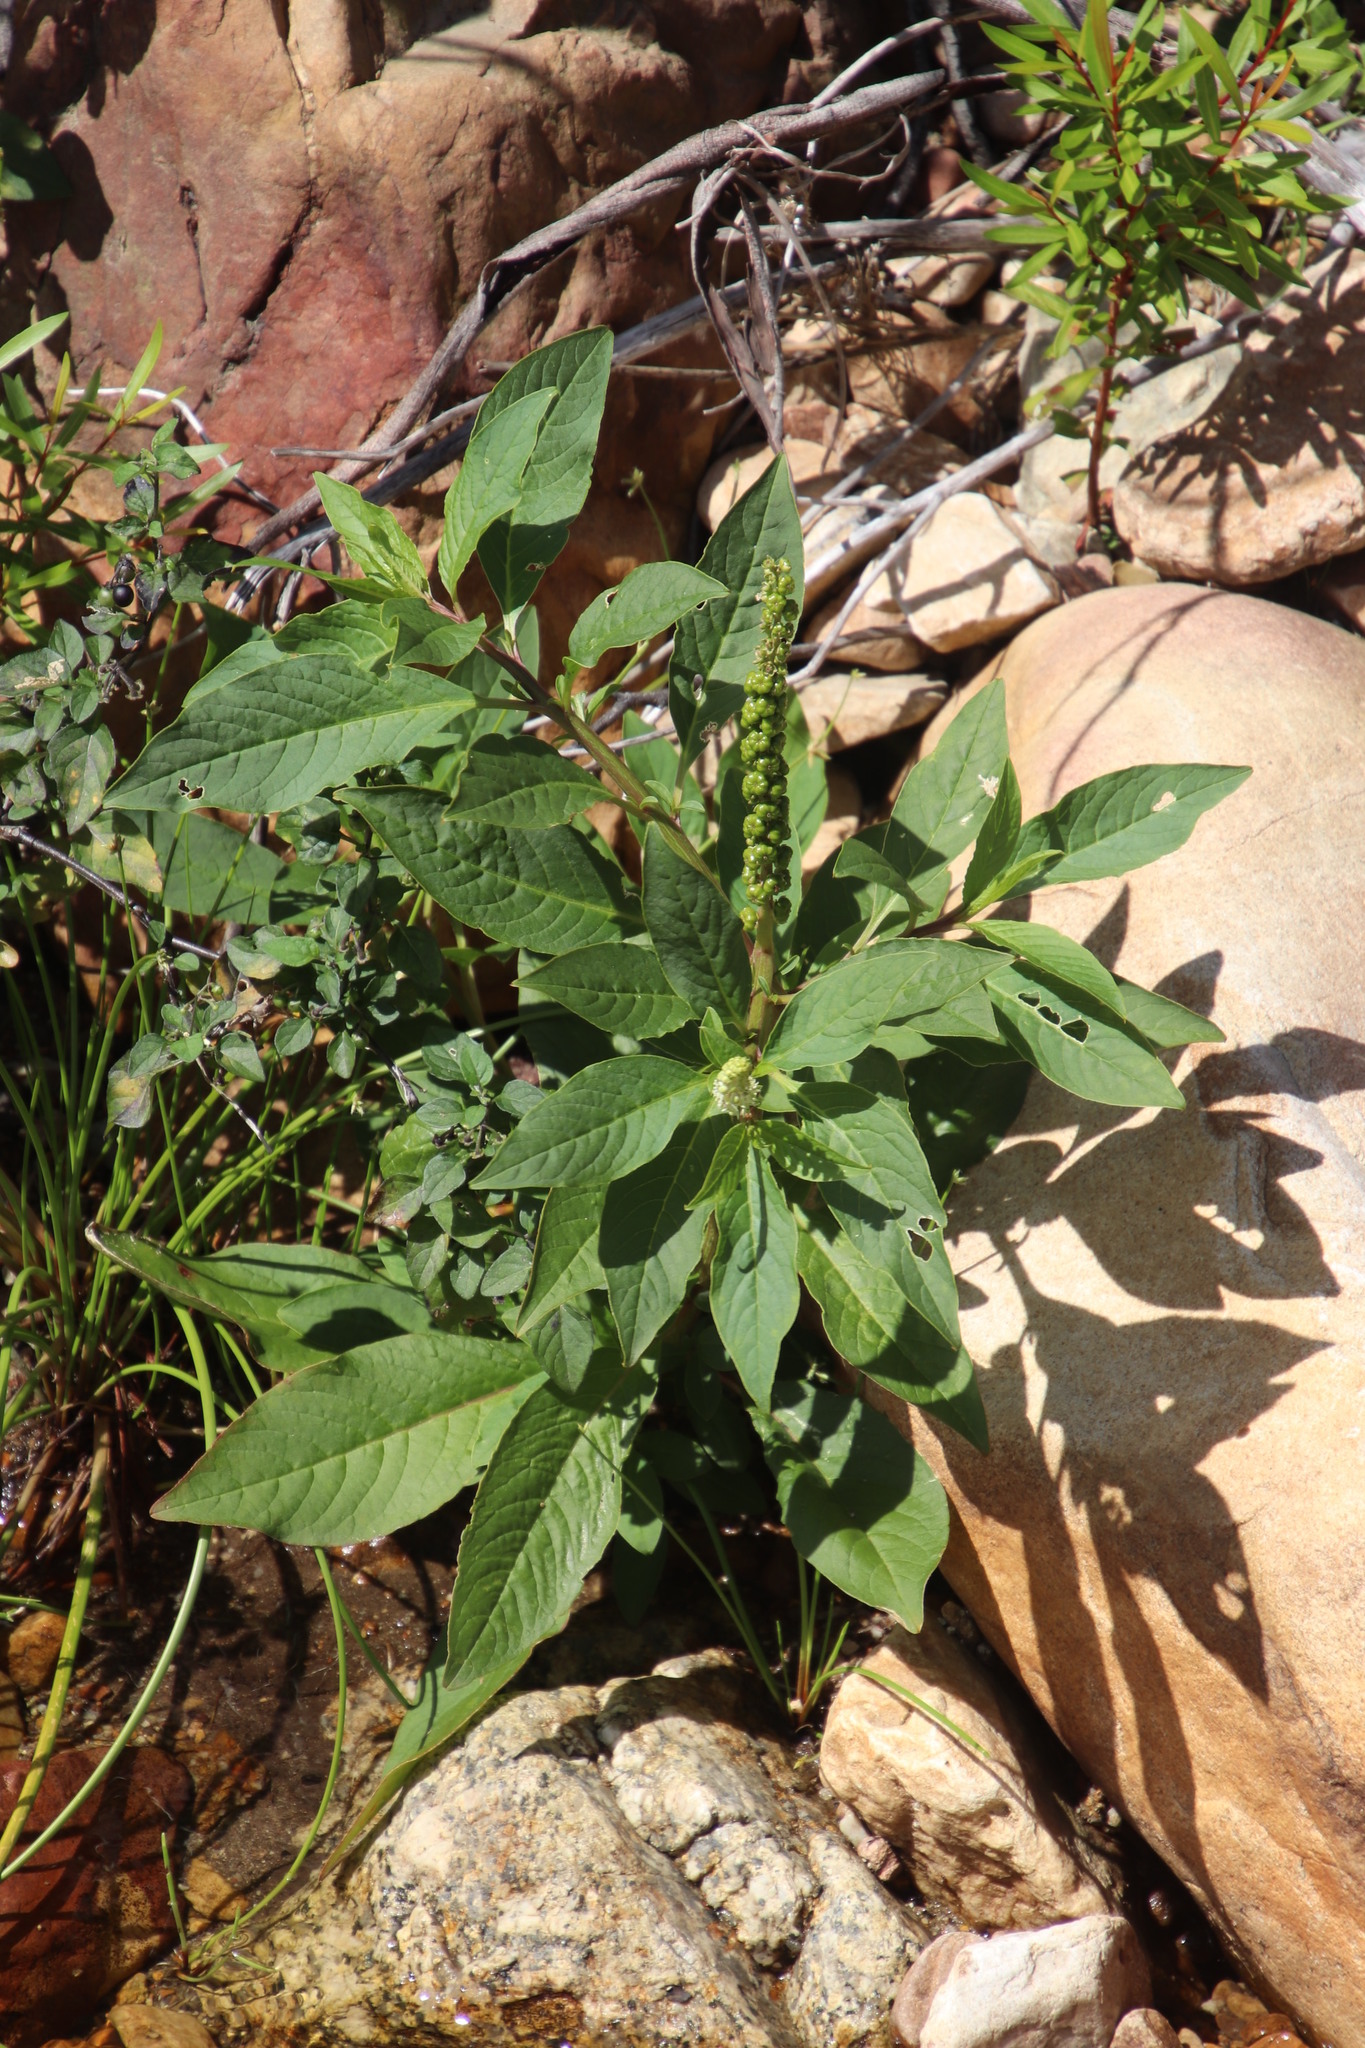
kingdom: Plantae
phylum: Tracheophyta
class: Magnoliopsida
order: Caryophyllales
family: Phytolaccaceae
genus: Phytolacca
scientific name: Phytolacca icosandra
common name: Button pokeweed
